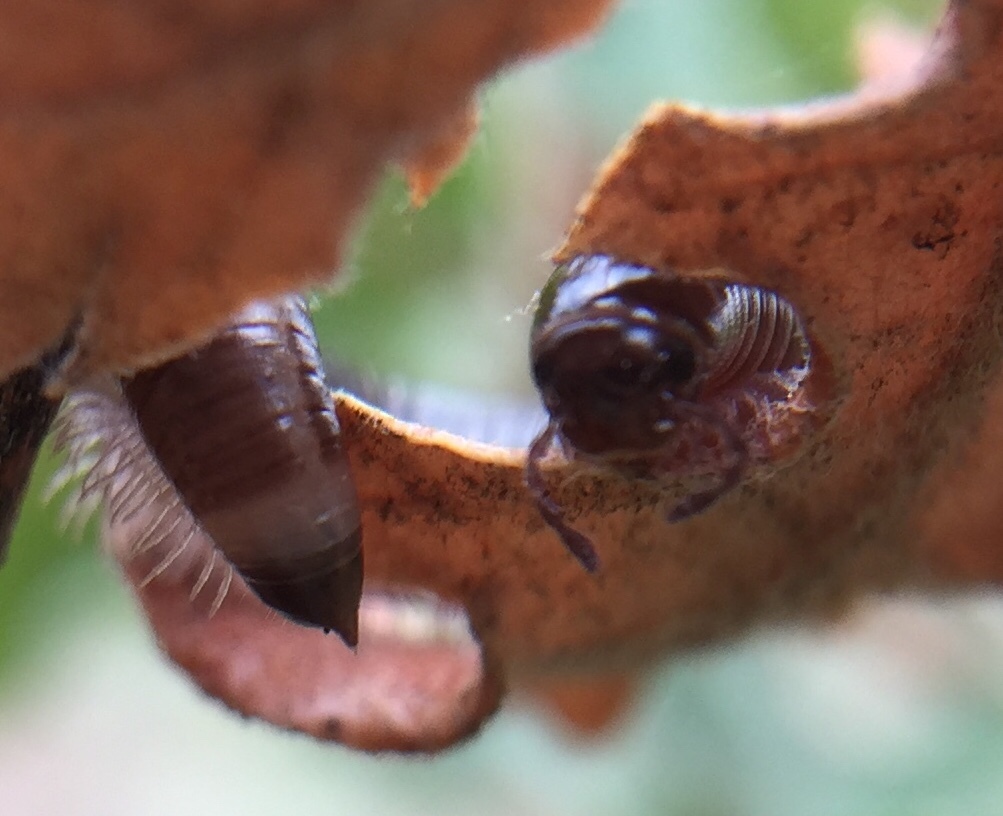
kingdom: Animalia
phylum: Arthropoda
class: Diplopoda
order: Julida
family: Julidae
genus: Megaphyllum
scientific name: Megaphyllum unilineatum
